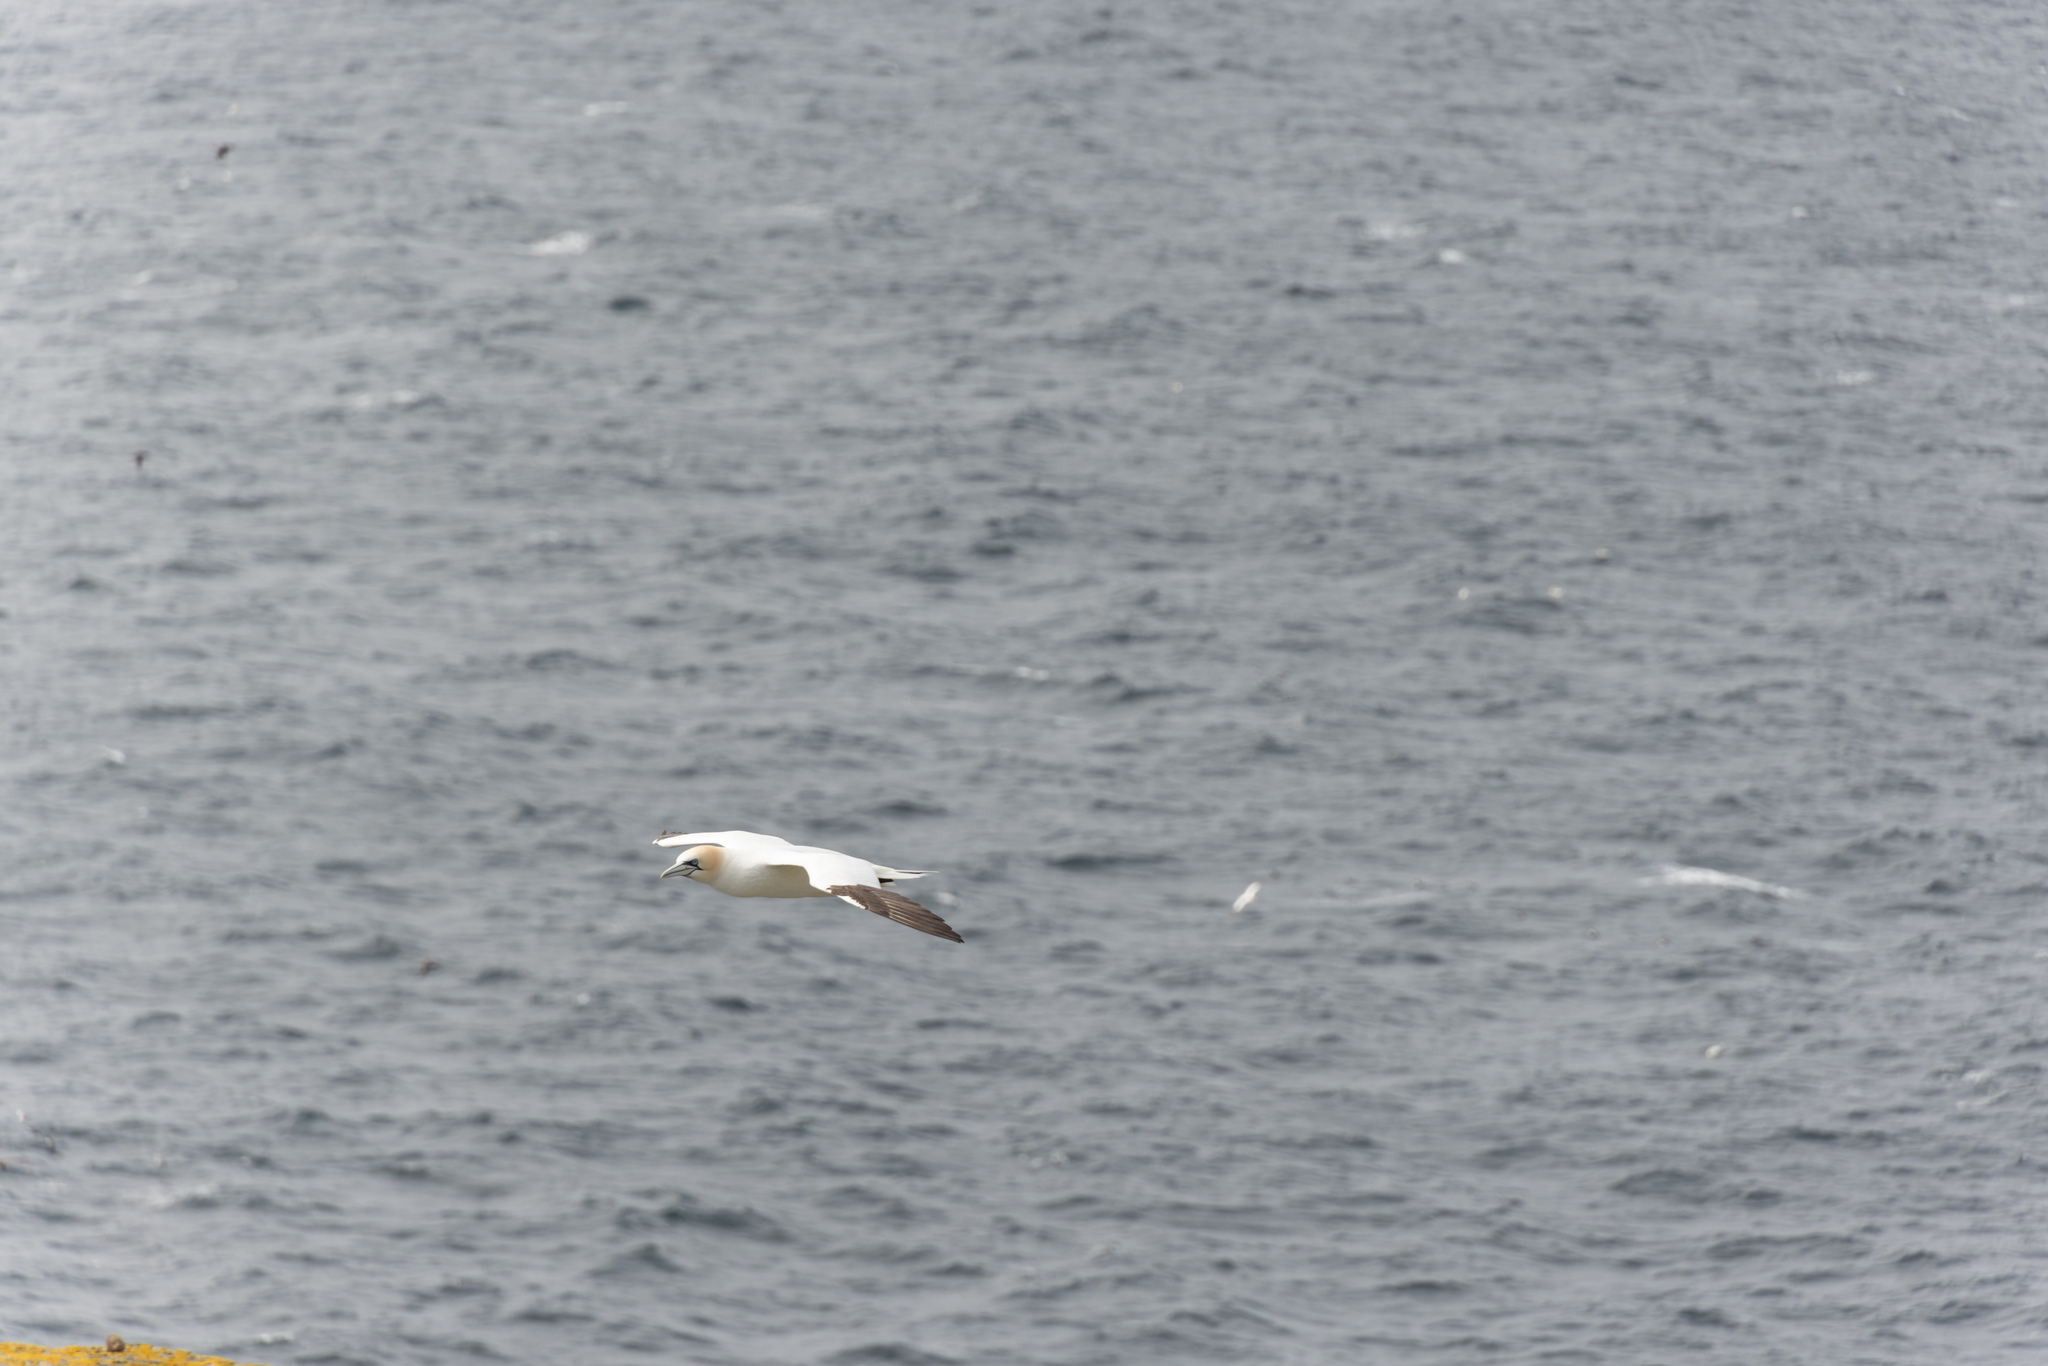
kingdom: Animalia
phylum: Chordata
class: Aves
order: Suliformes
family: Sulidae
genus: Morus
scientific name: Morus bassanus
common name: Northern gannet
